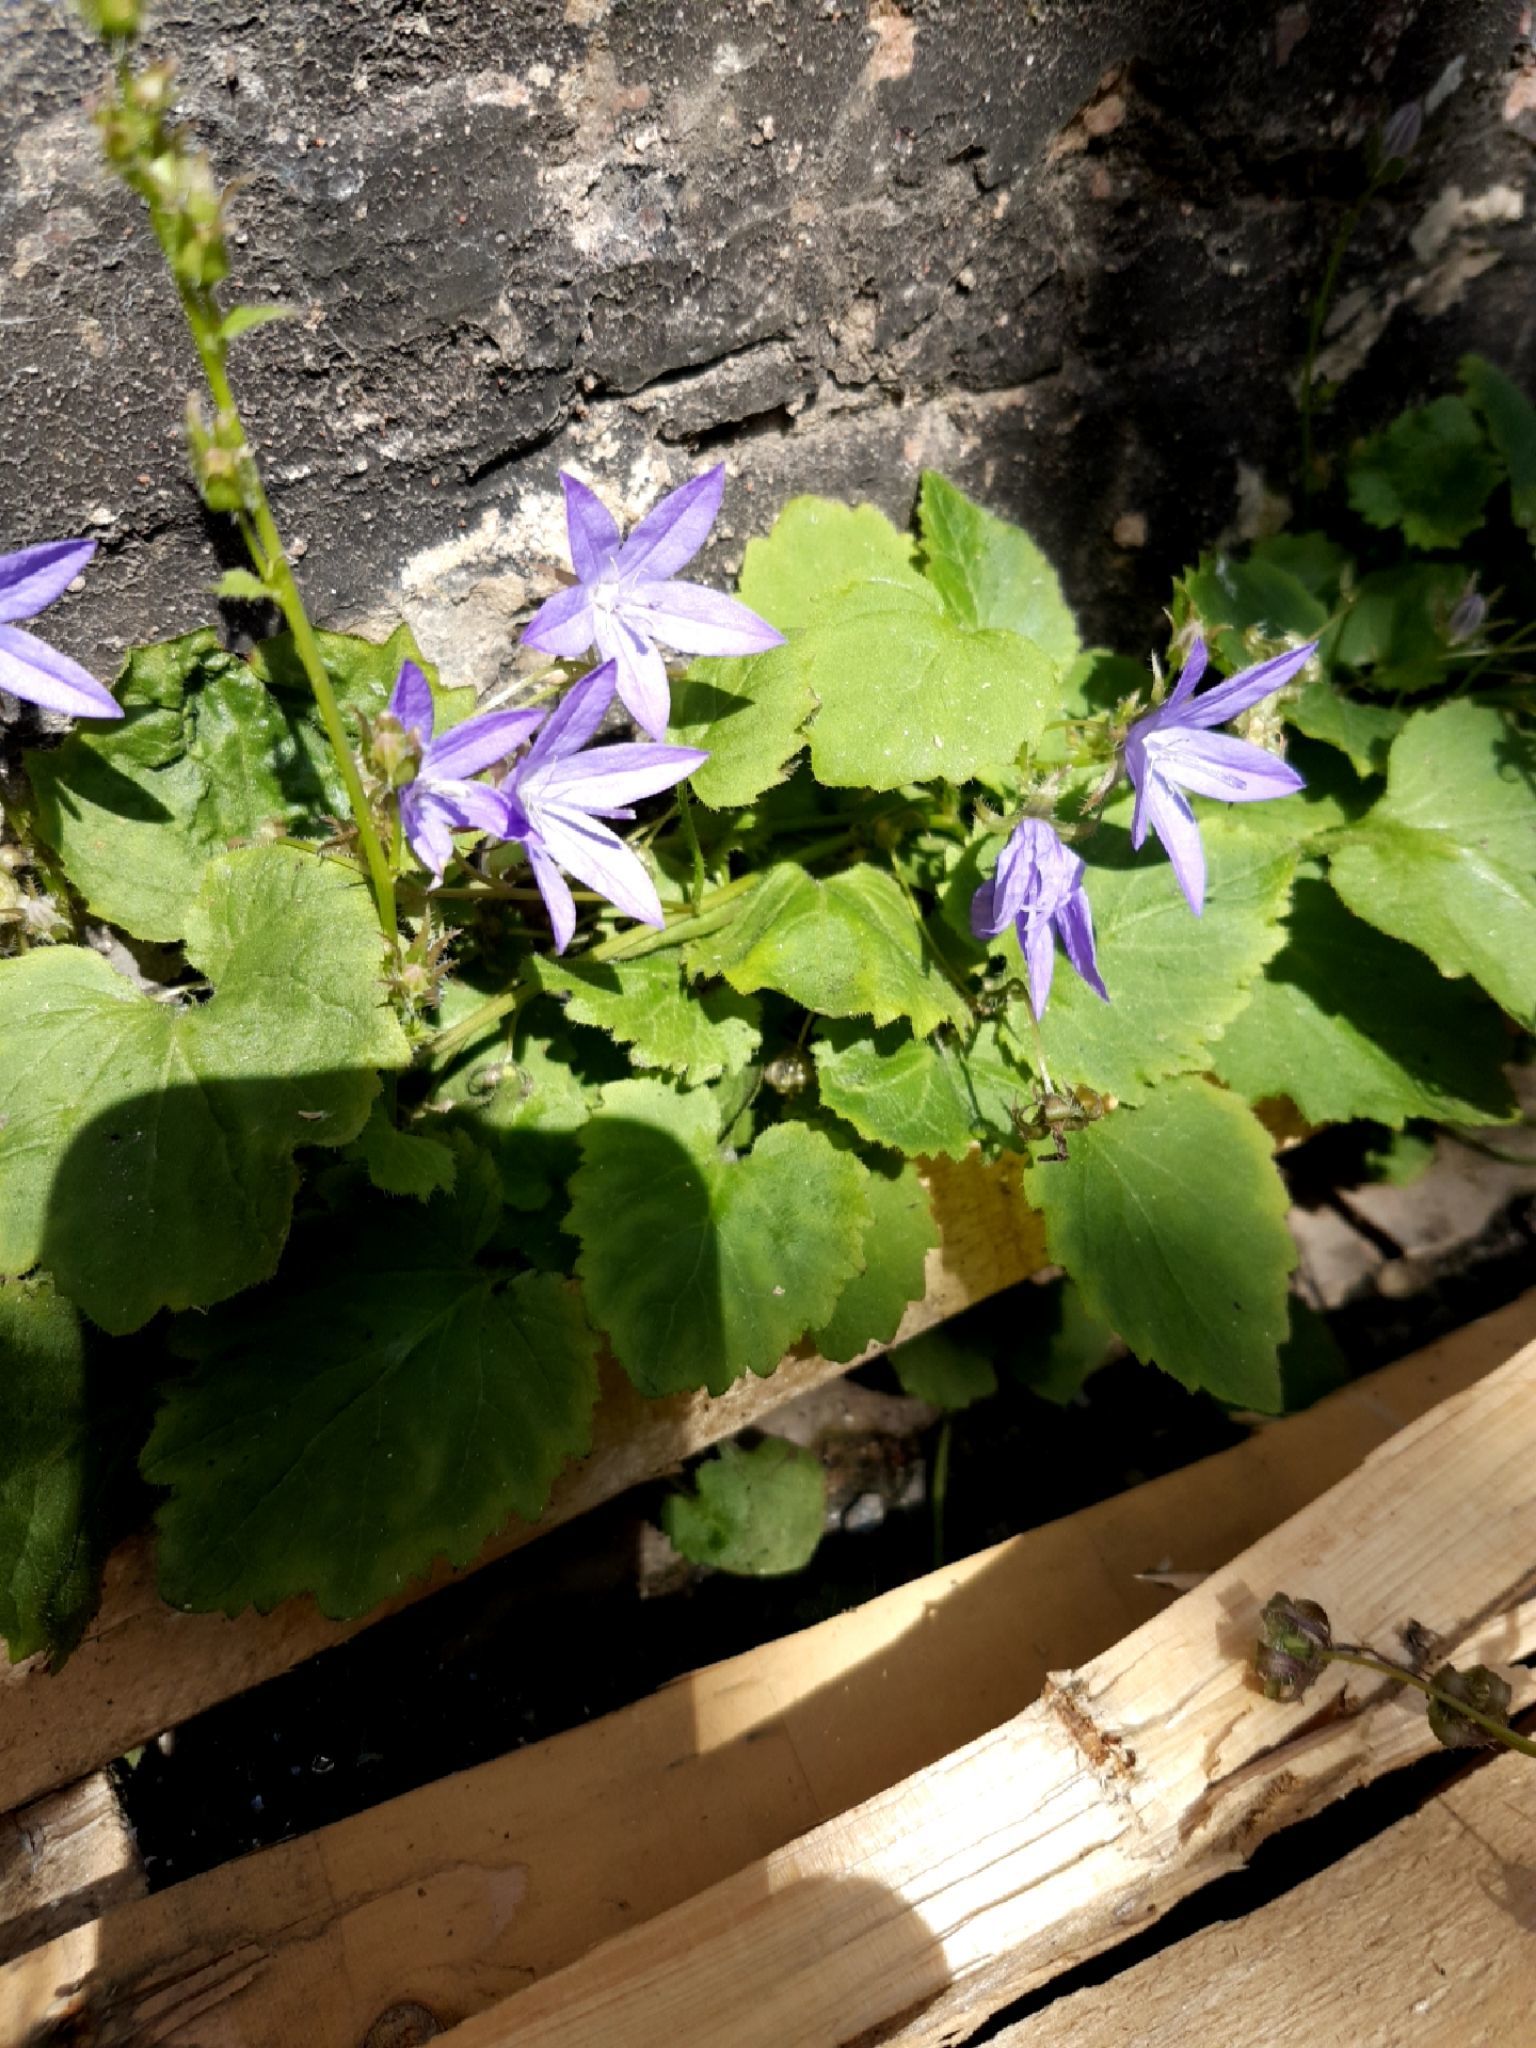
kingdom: Plantae
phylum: Tracheophyta
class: Magnoliopsida
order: Asterales
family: Campanulaceae
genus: Campanula
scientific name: Campanula poscharskyana
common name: Trailing bellflower
